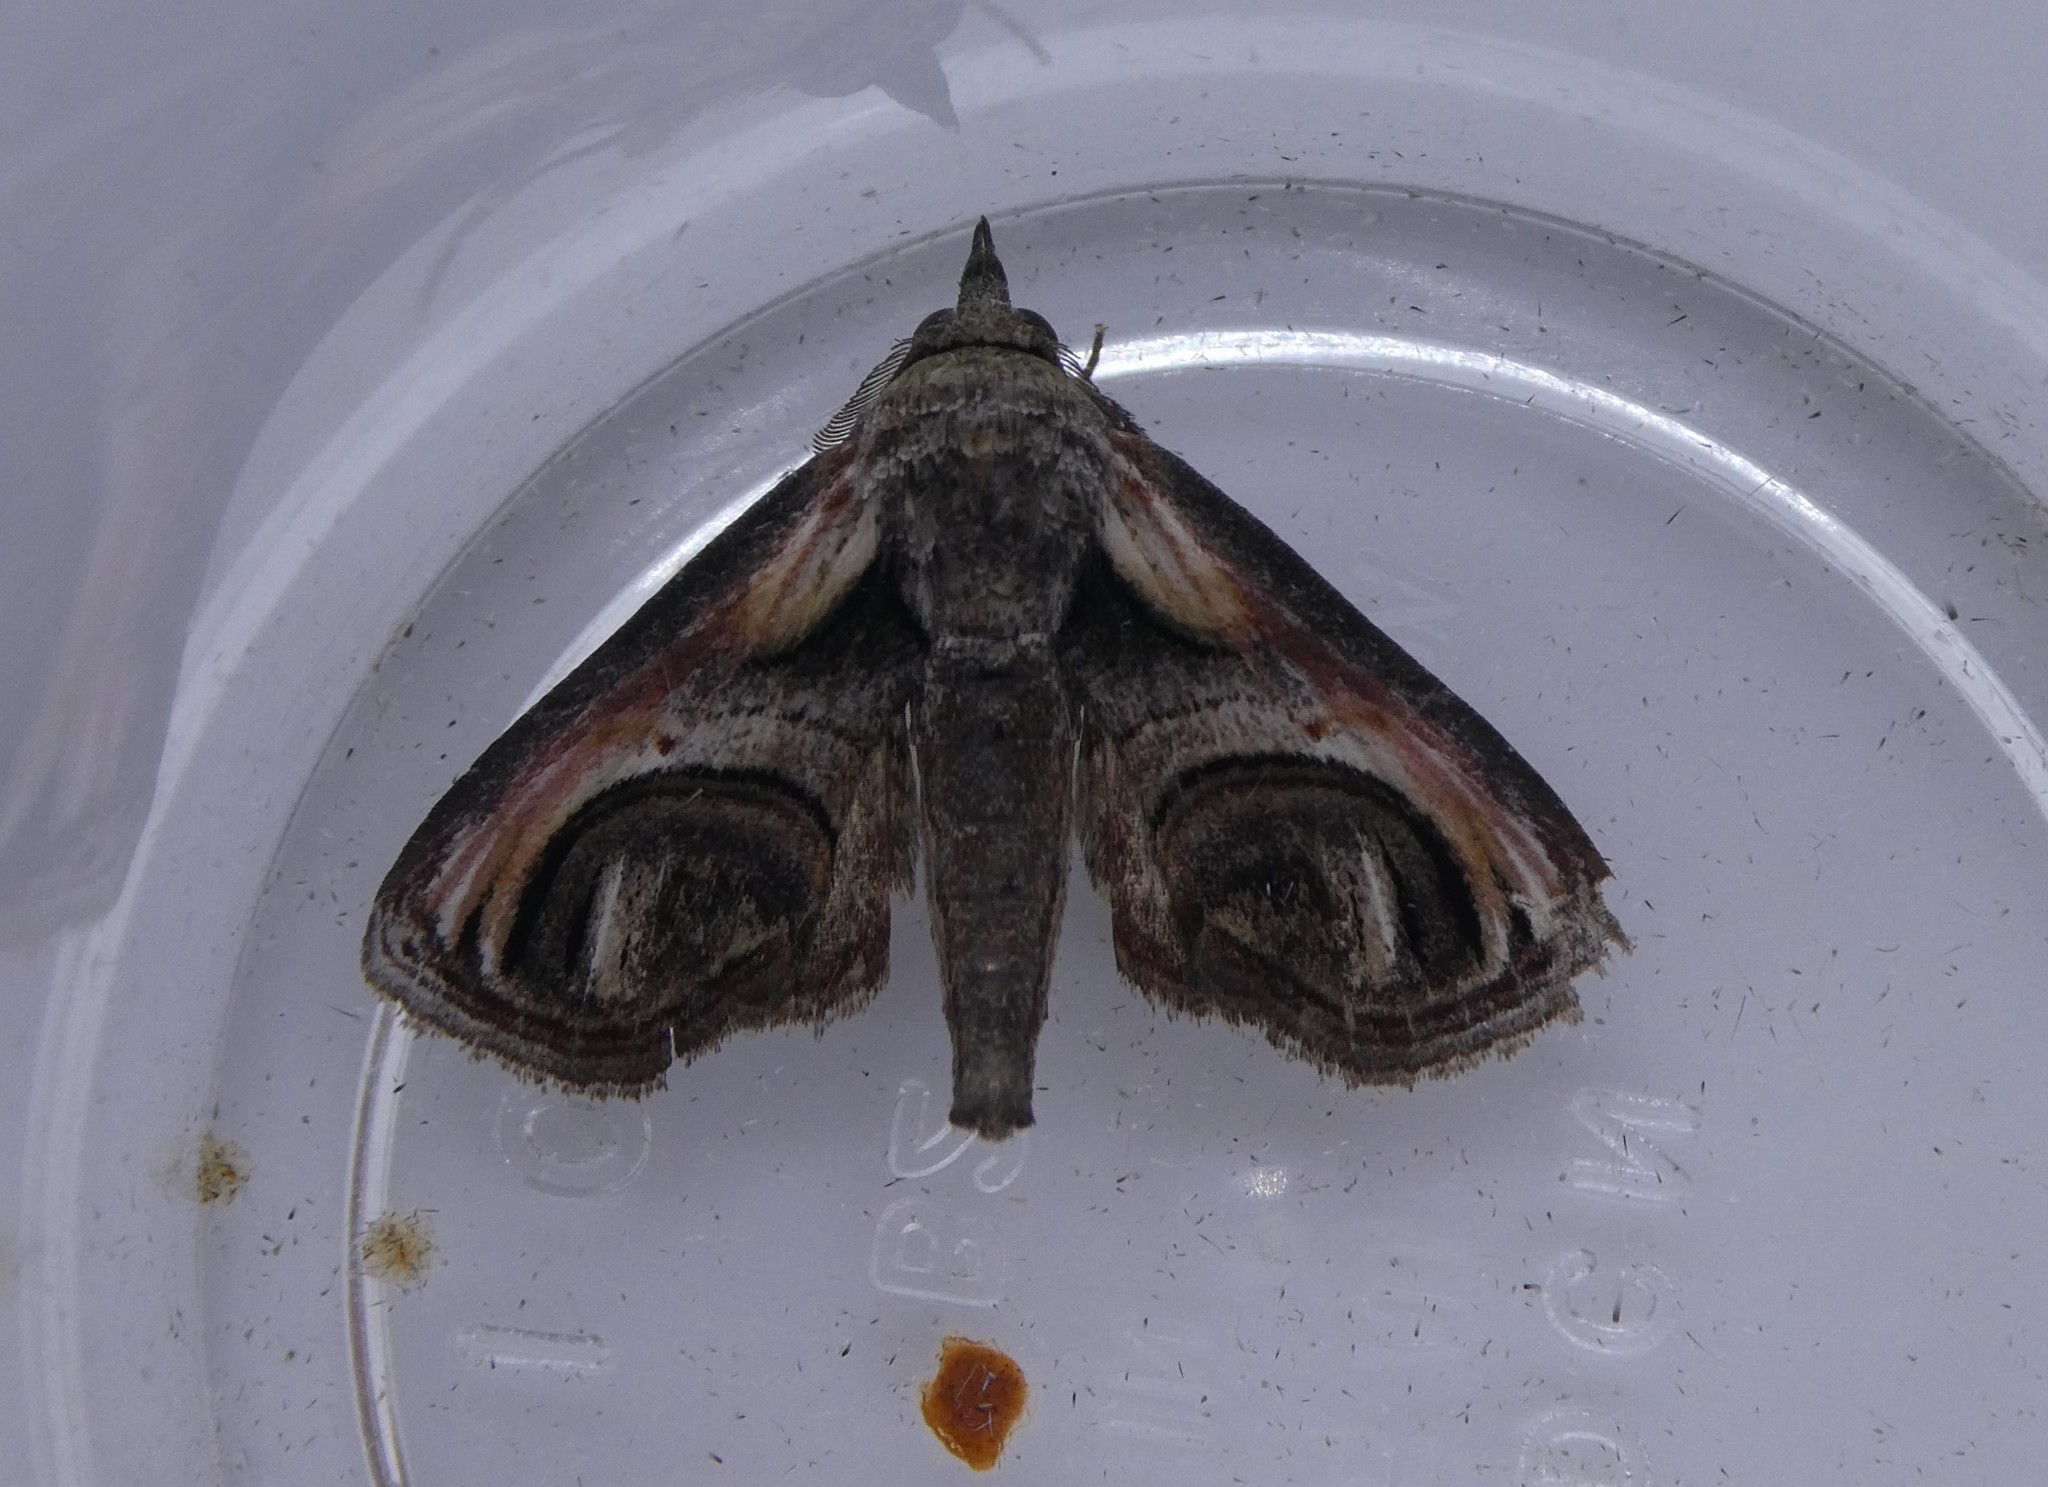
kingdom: Animalia
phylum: Arthropoda
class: Insecta
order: Lepidoptera
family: Euteliidae
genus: Paectes
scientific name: Paectes oculatrix
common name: Eyed paectes moth
